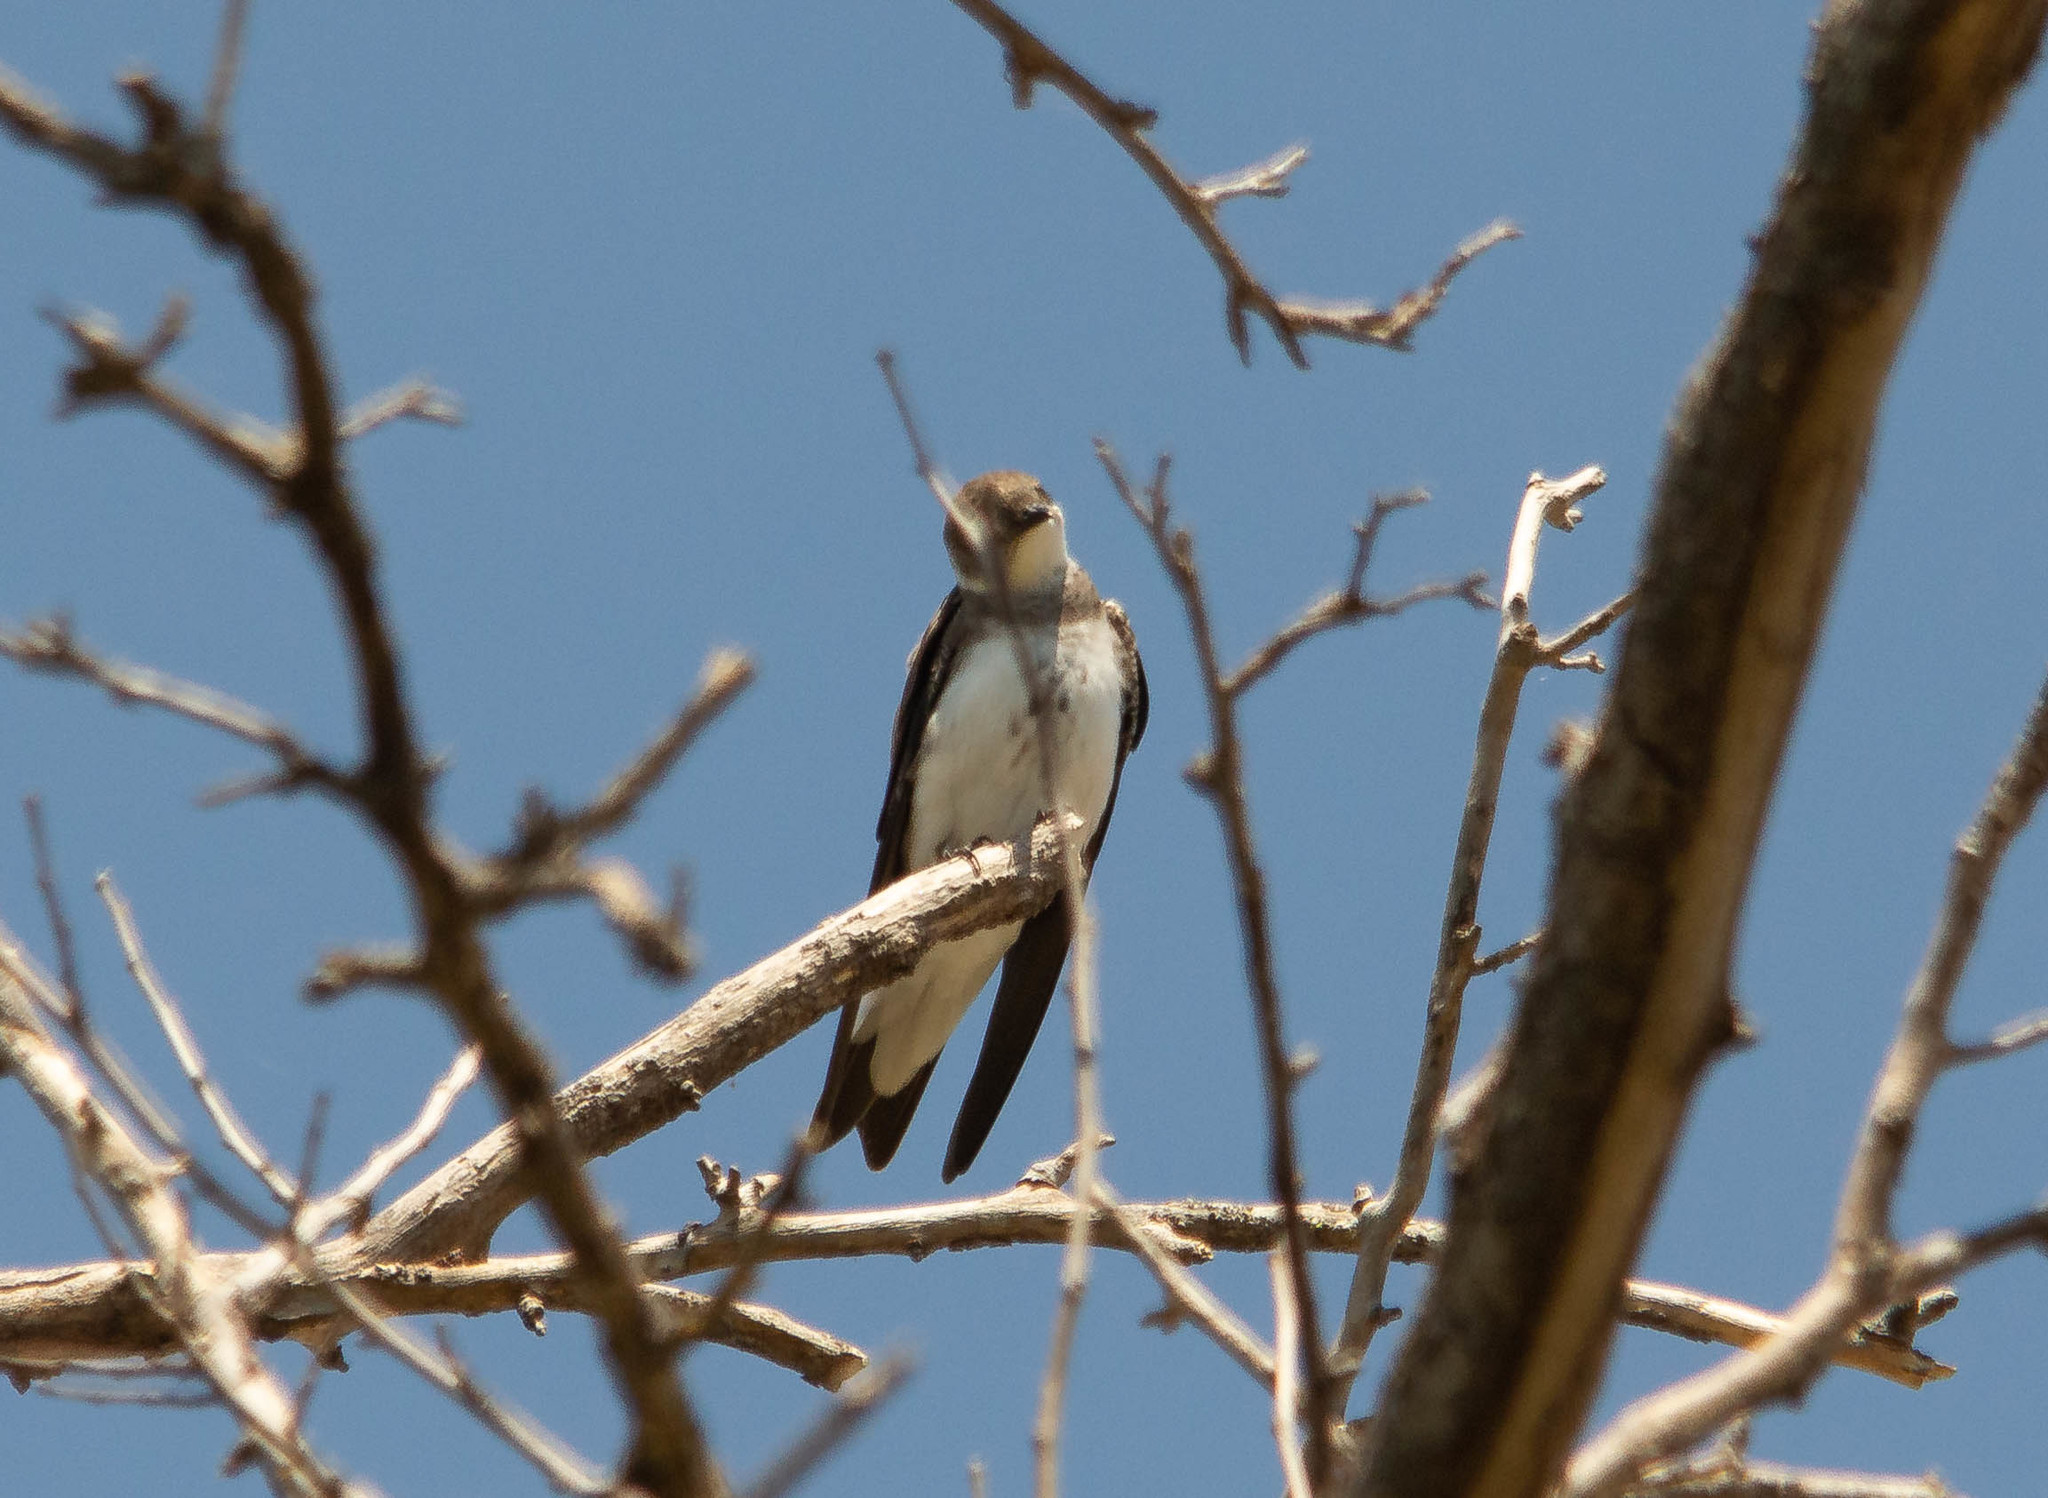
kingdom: Animalia
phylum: Chordata
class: Aves
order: Passeriformes
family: Hirundinidae
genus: Progne
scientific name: Progne tapera
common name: Brown-chested martin
